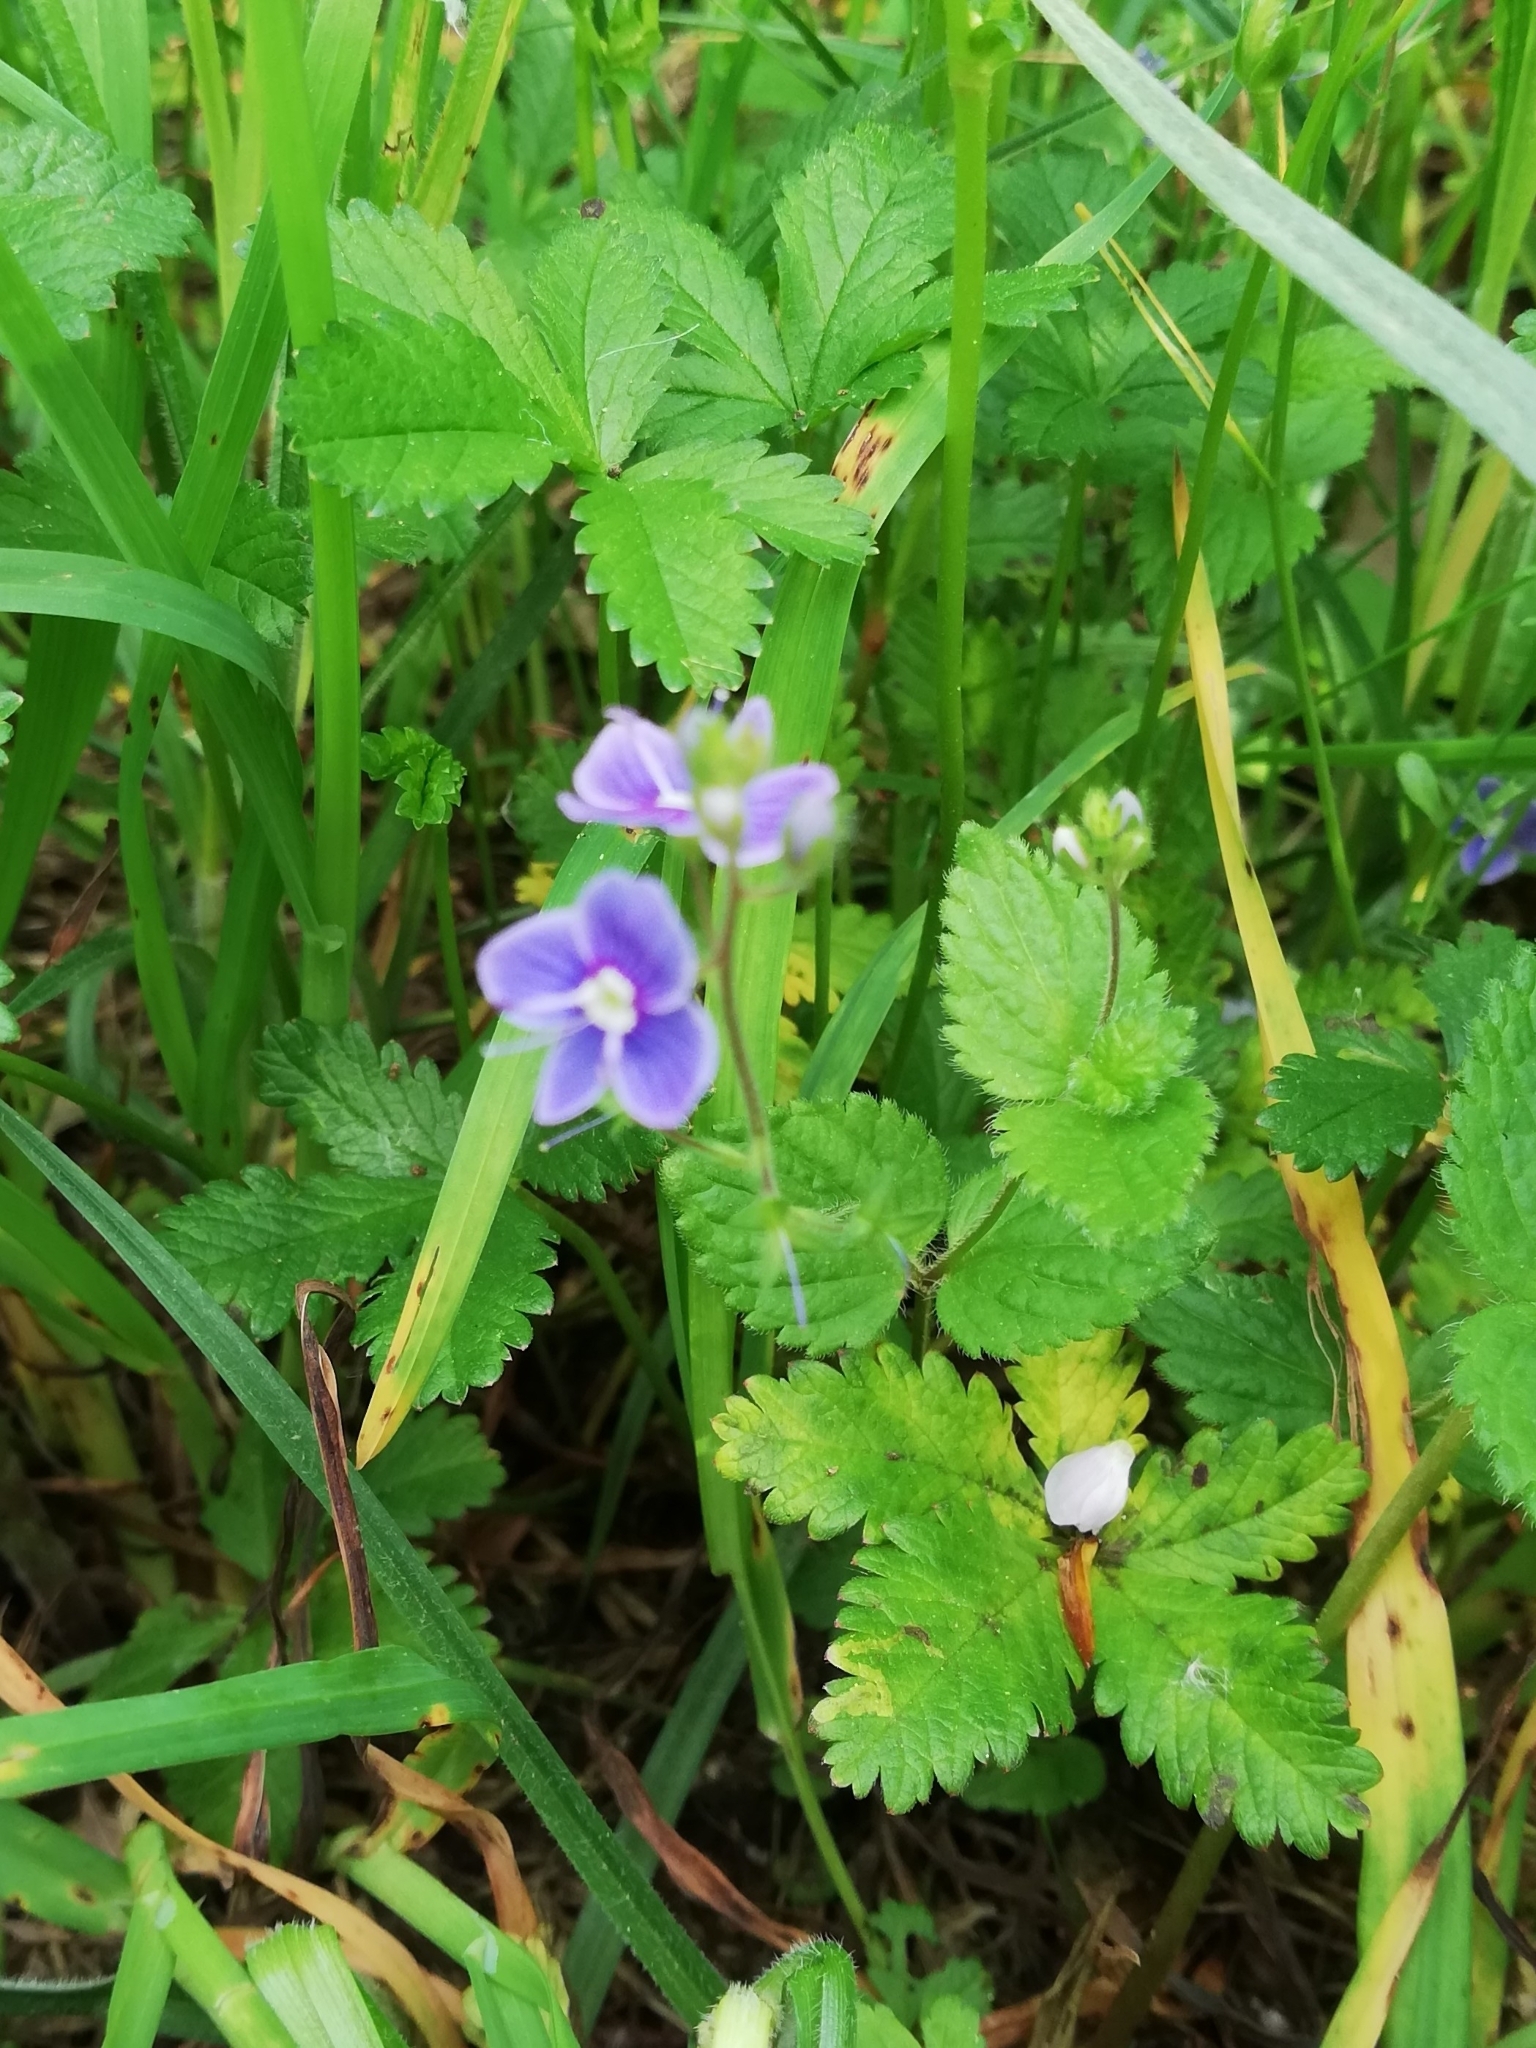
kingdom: Plantae
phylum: Tracheophyta
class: Magnoliopsida
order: Lamiales
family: Plantaginaceae
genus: Veronica
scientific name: Veronica chamaedrys
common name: Germander speedwell
